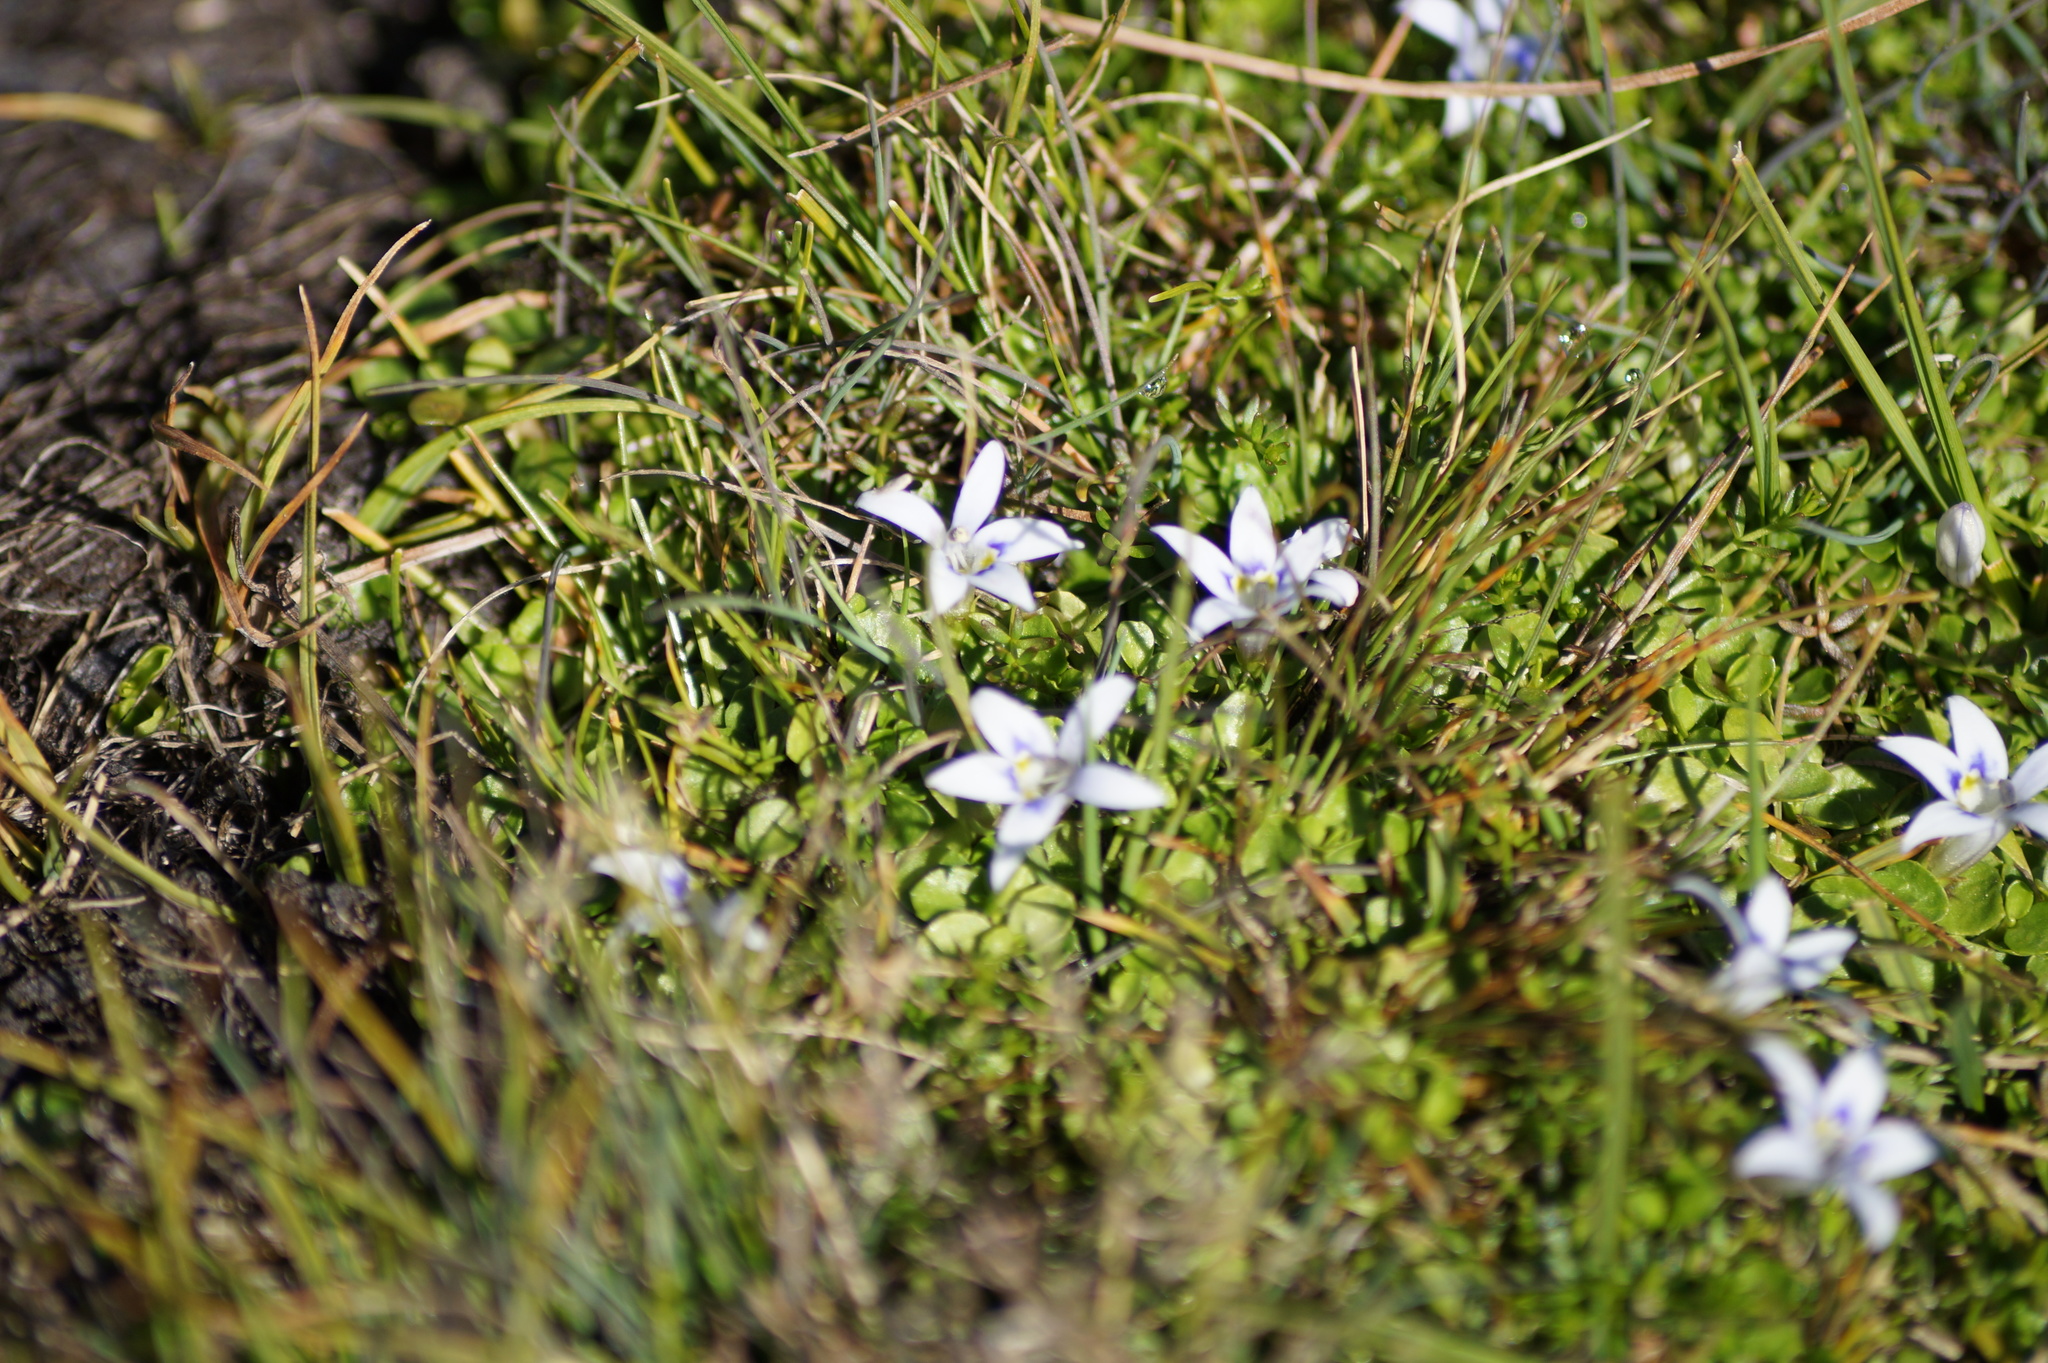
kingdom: Plantae
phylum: Tracheophyta
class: Magnoliopsida
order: Asterales
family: Campanulaceae
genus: Isotoma
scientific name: Isotoma rivalis
